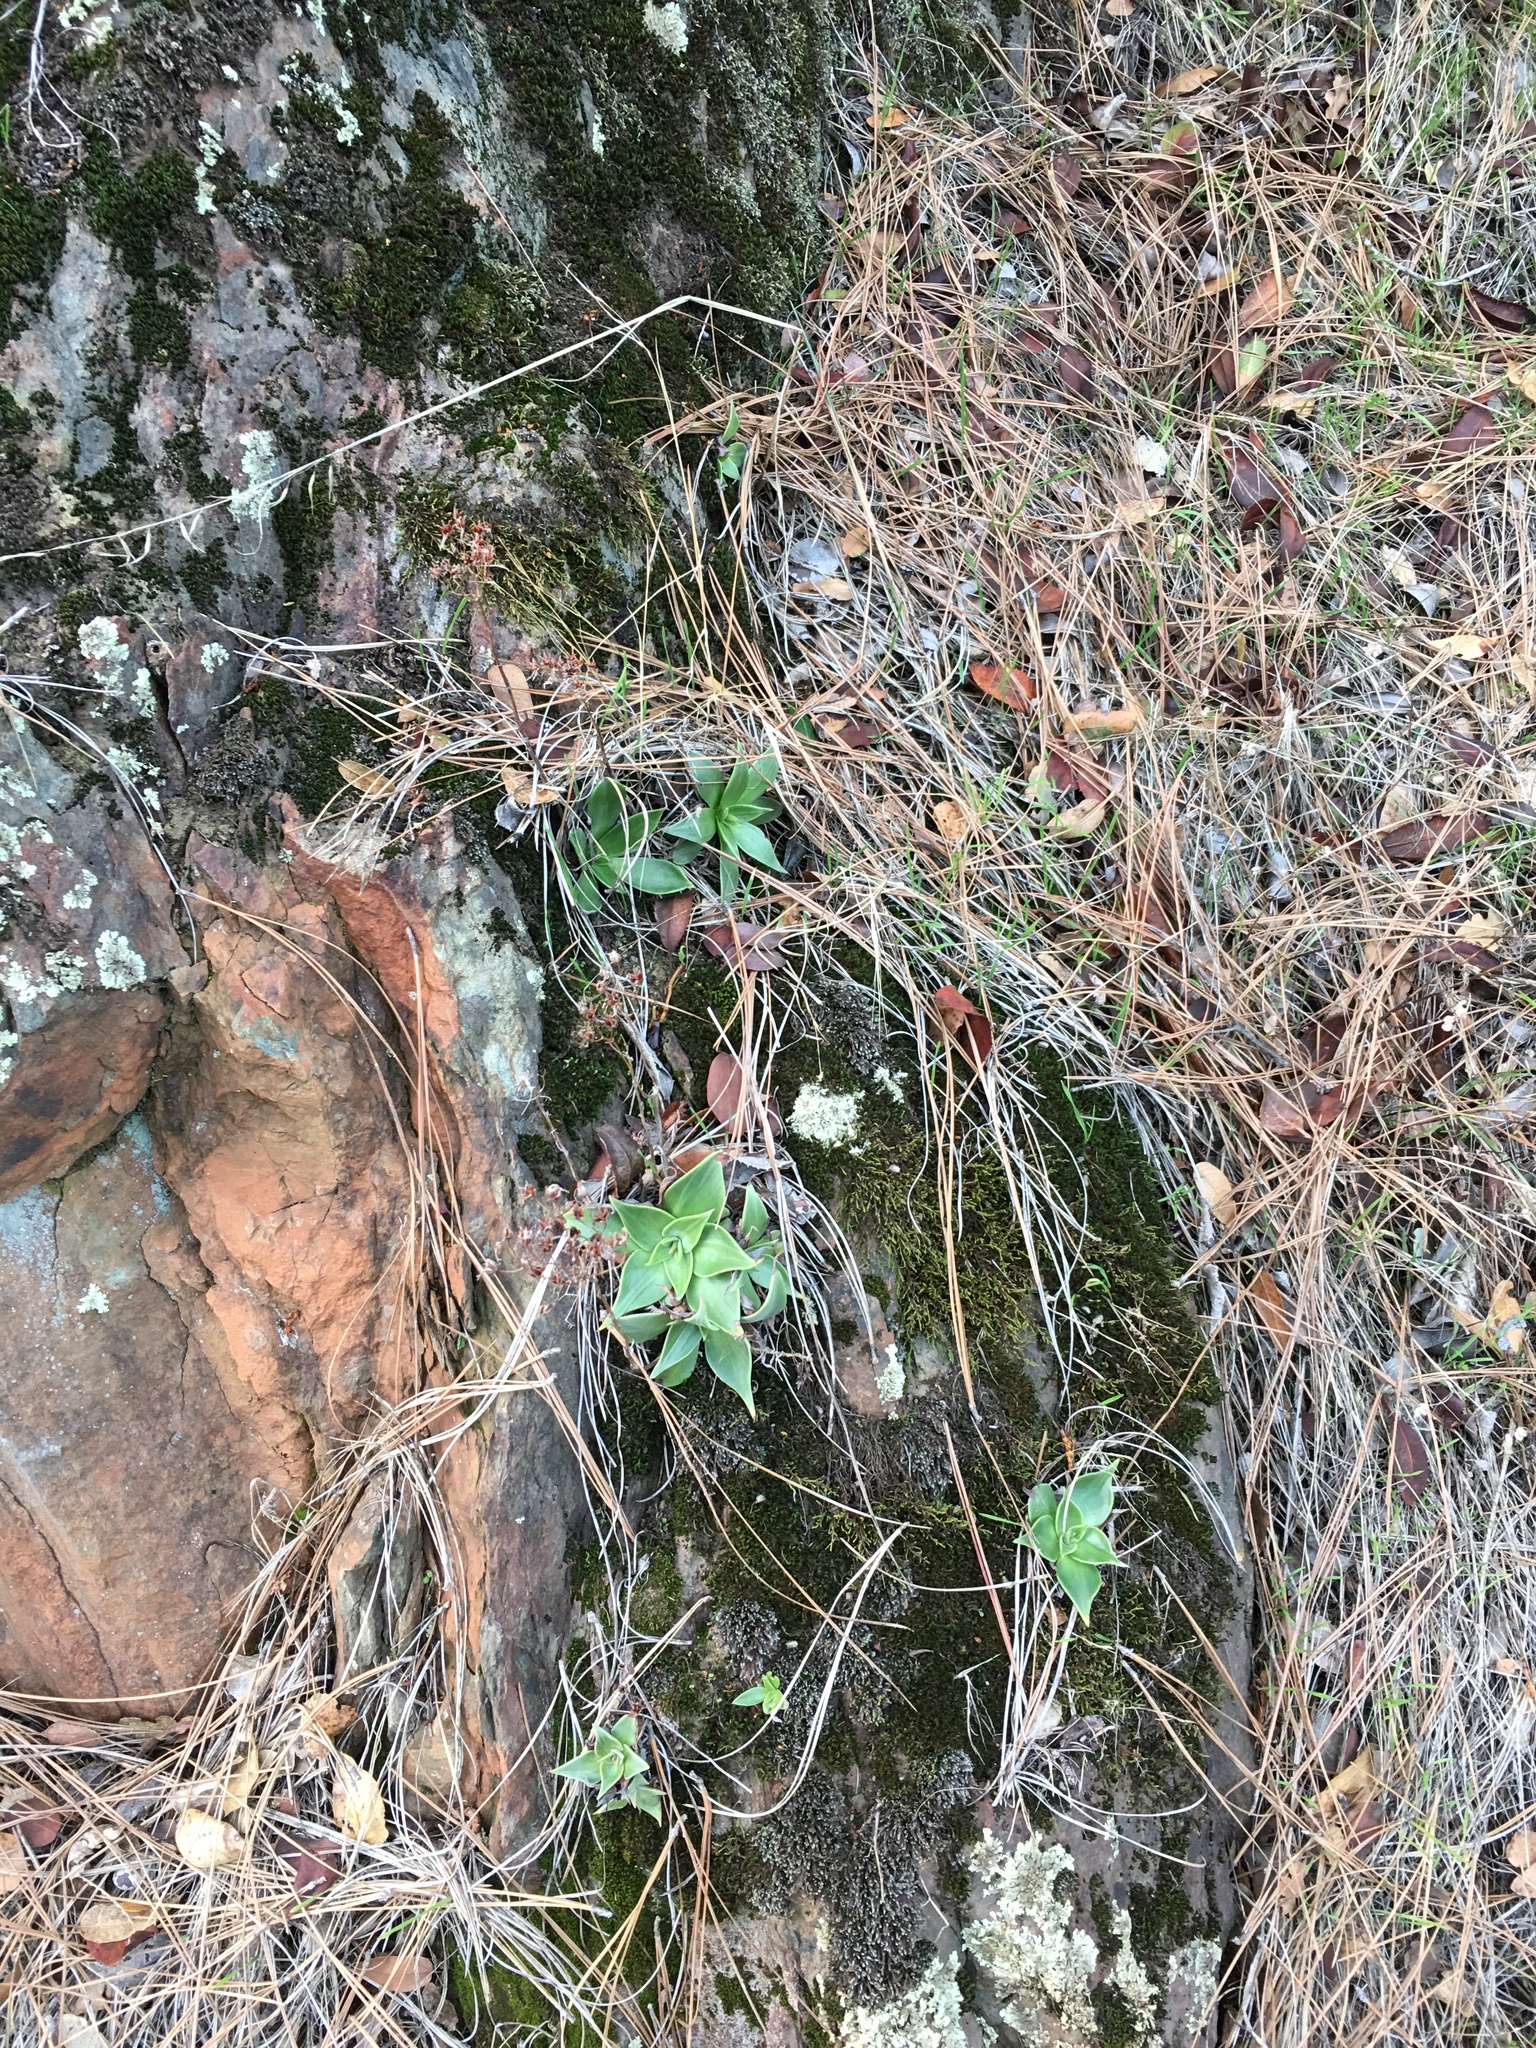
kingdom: Plantae
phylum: Tracheophyta
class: Magnoliopsida
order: Saxifragales
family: Crassulaceae
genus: Dudleya
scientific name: Dudleya cymosa
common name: Canyon dudleya
